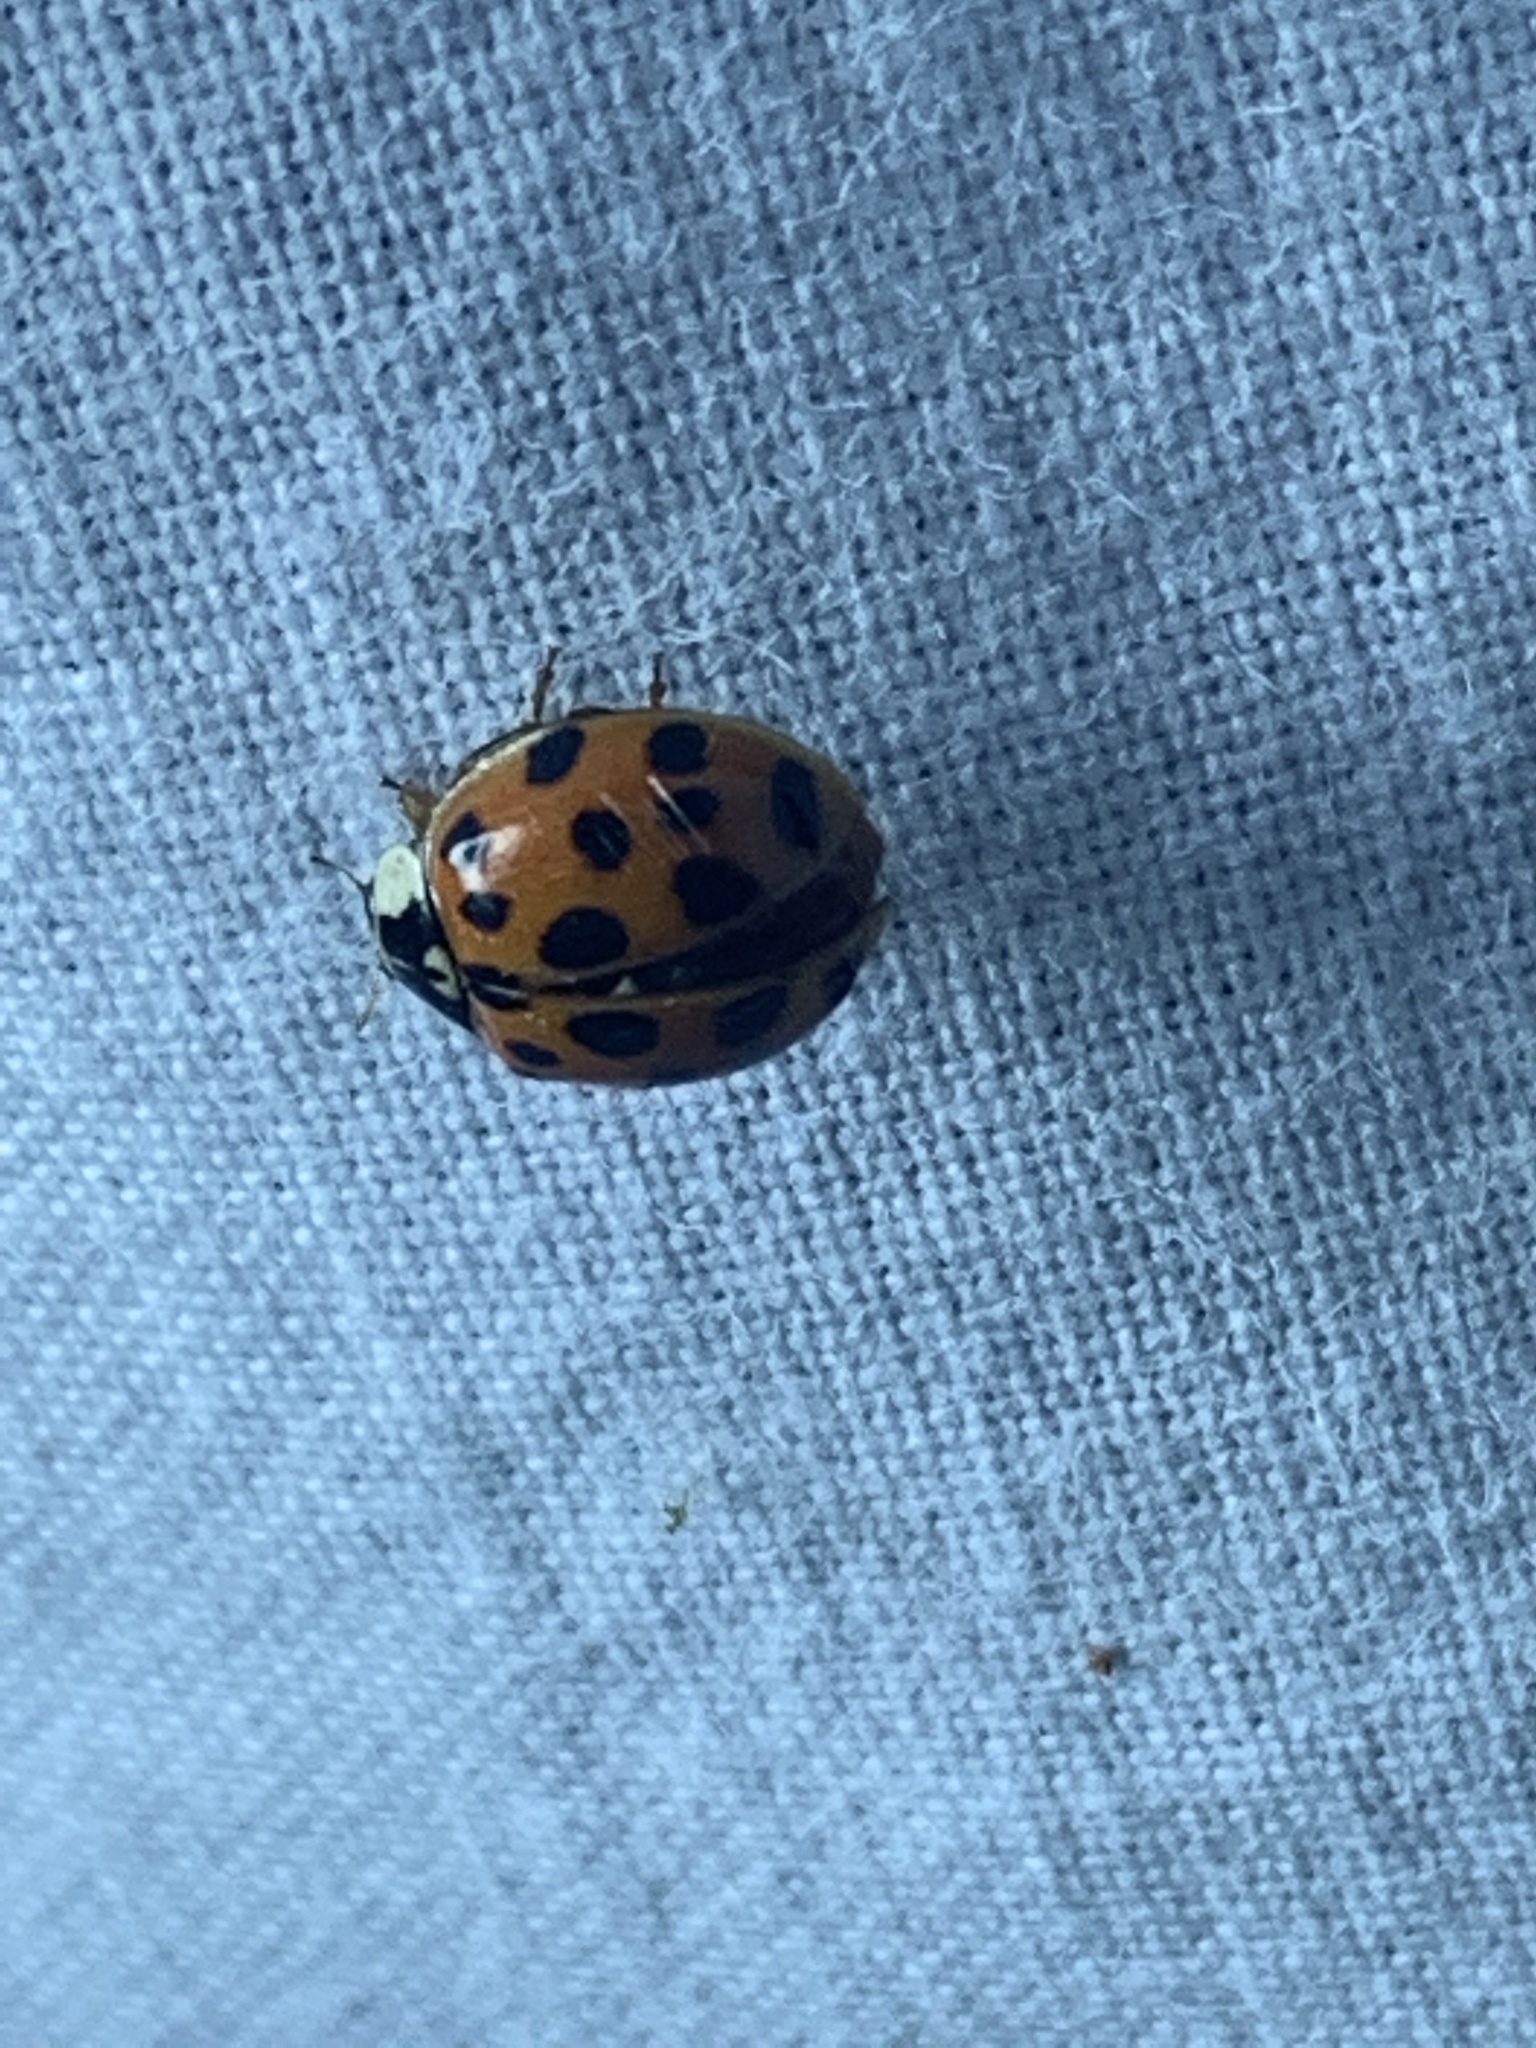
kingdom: Animalia
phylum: Arthropoda
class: Insecta
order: Coleoptera
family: Coccinellidae
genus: Harmonia
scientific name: Harmonia axyridis
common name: Harlequin ladybird
